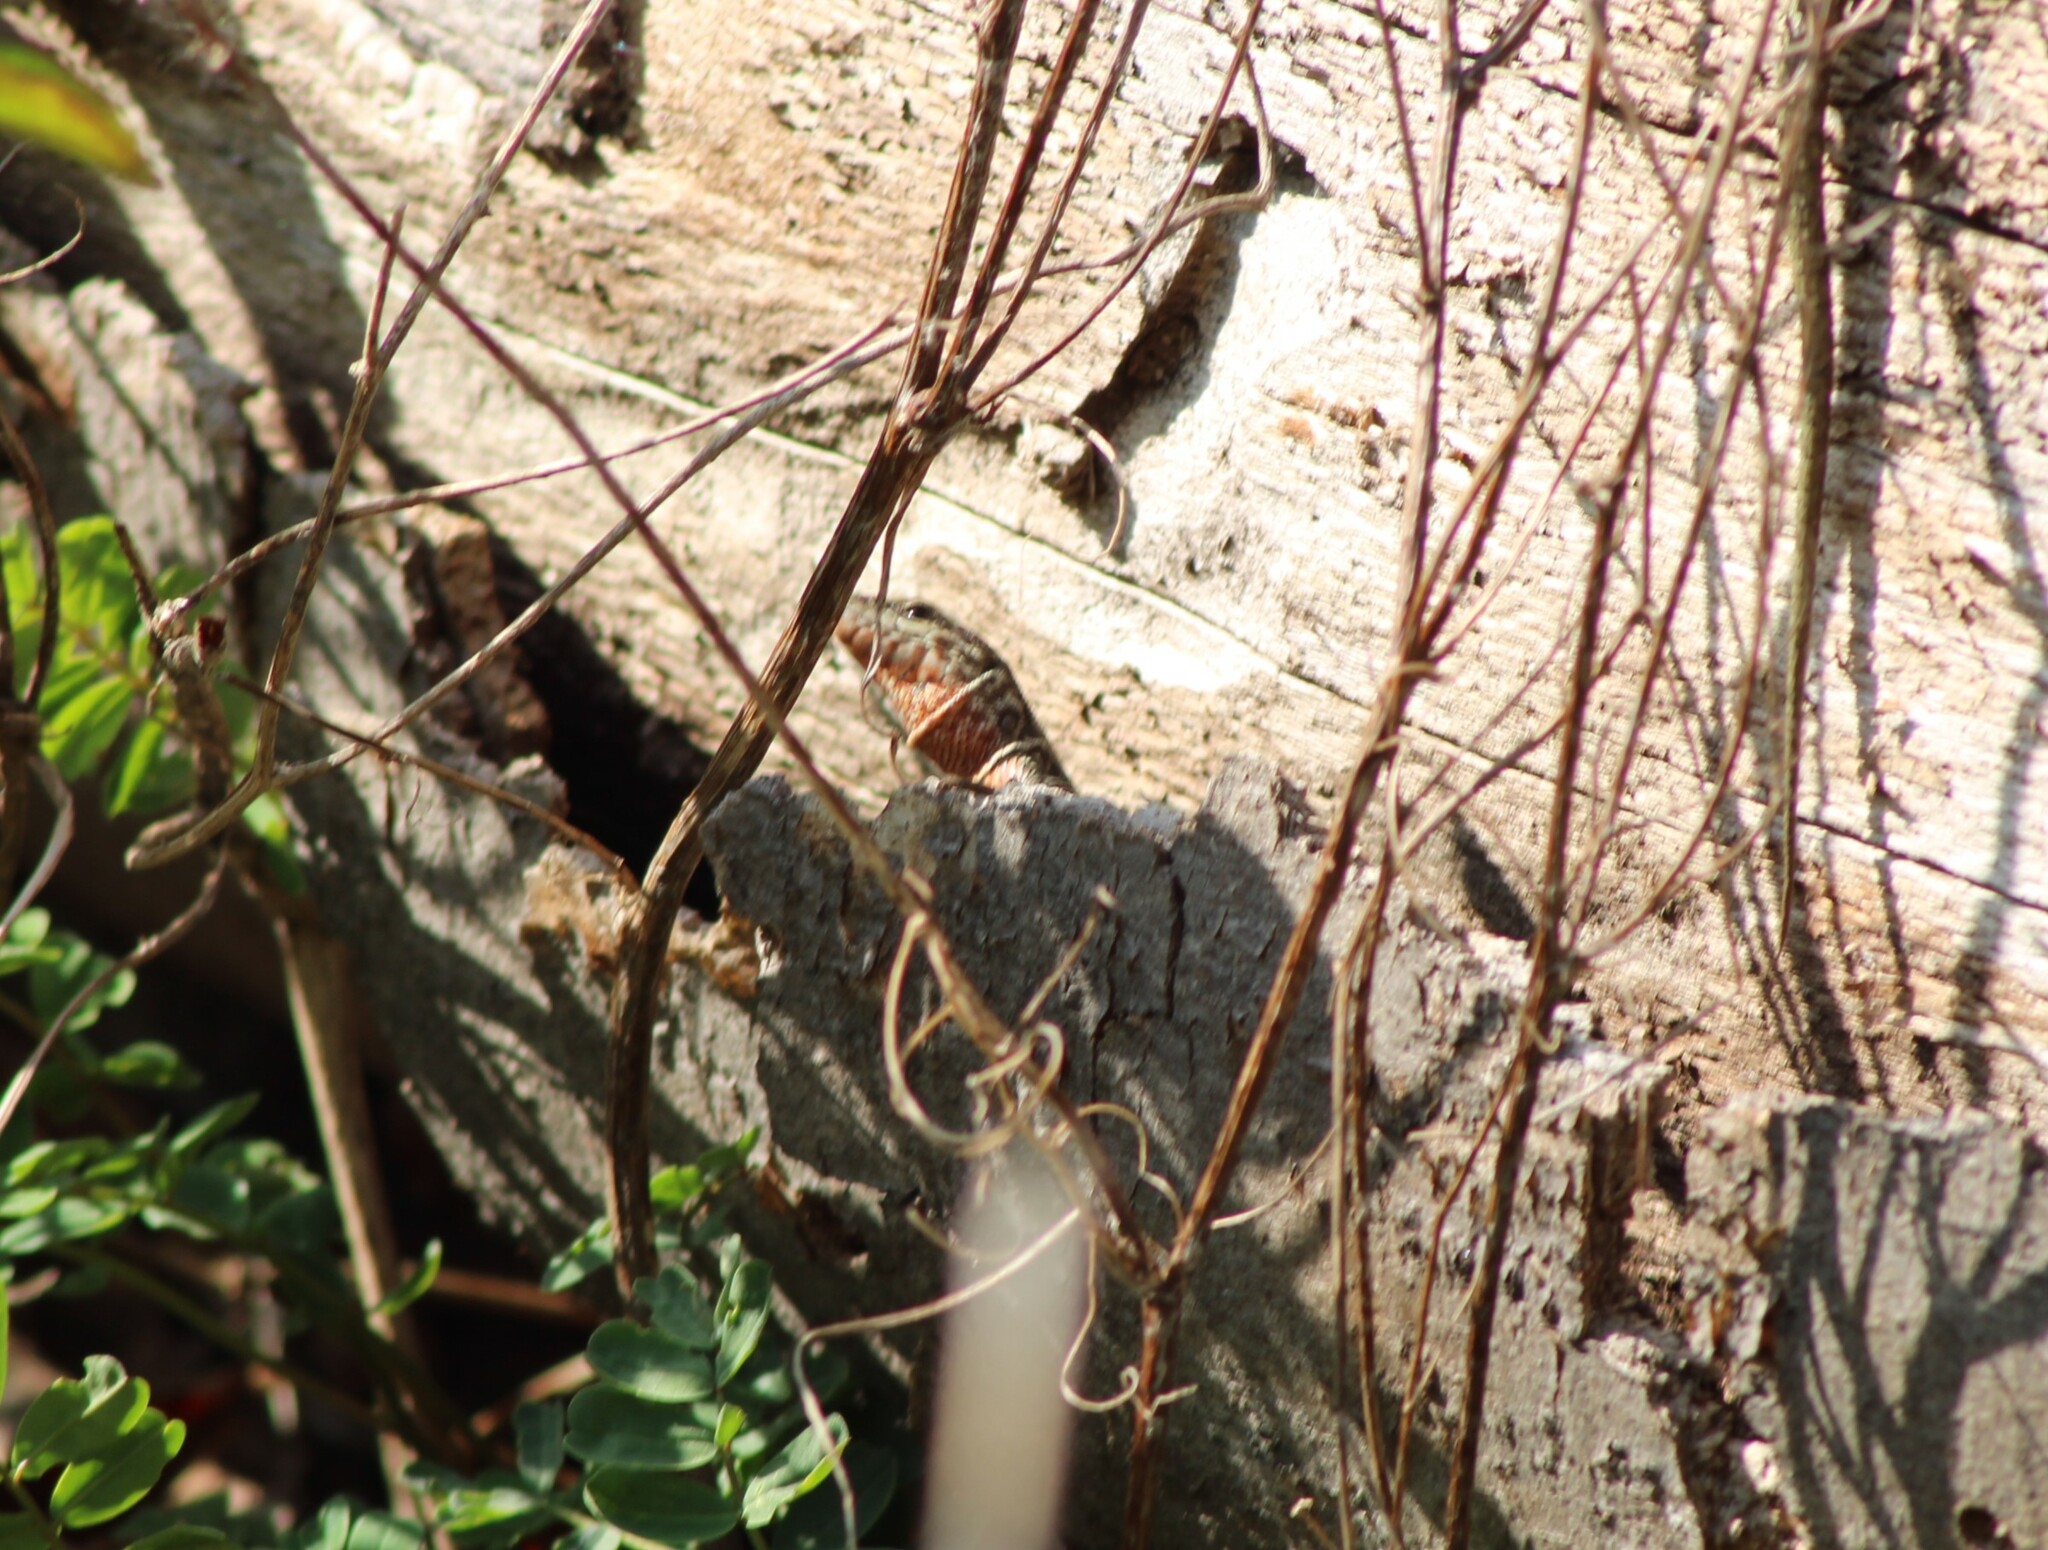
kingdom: Animalia
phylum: Chordata
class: Squamata
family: Lacertidae
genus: Podarcis
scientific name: Podarcis muralis
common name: Common wall lizard
